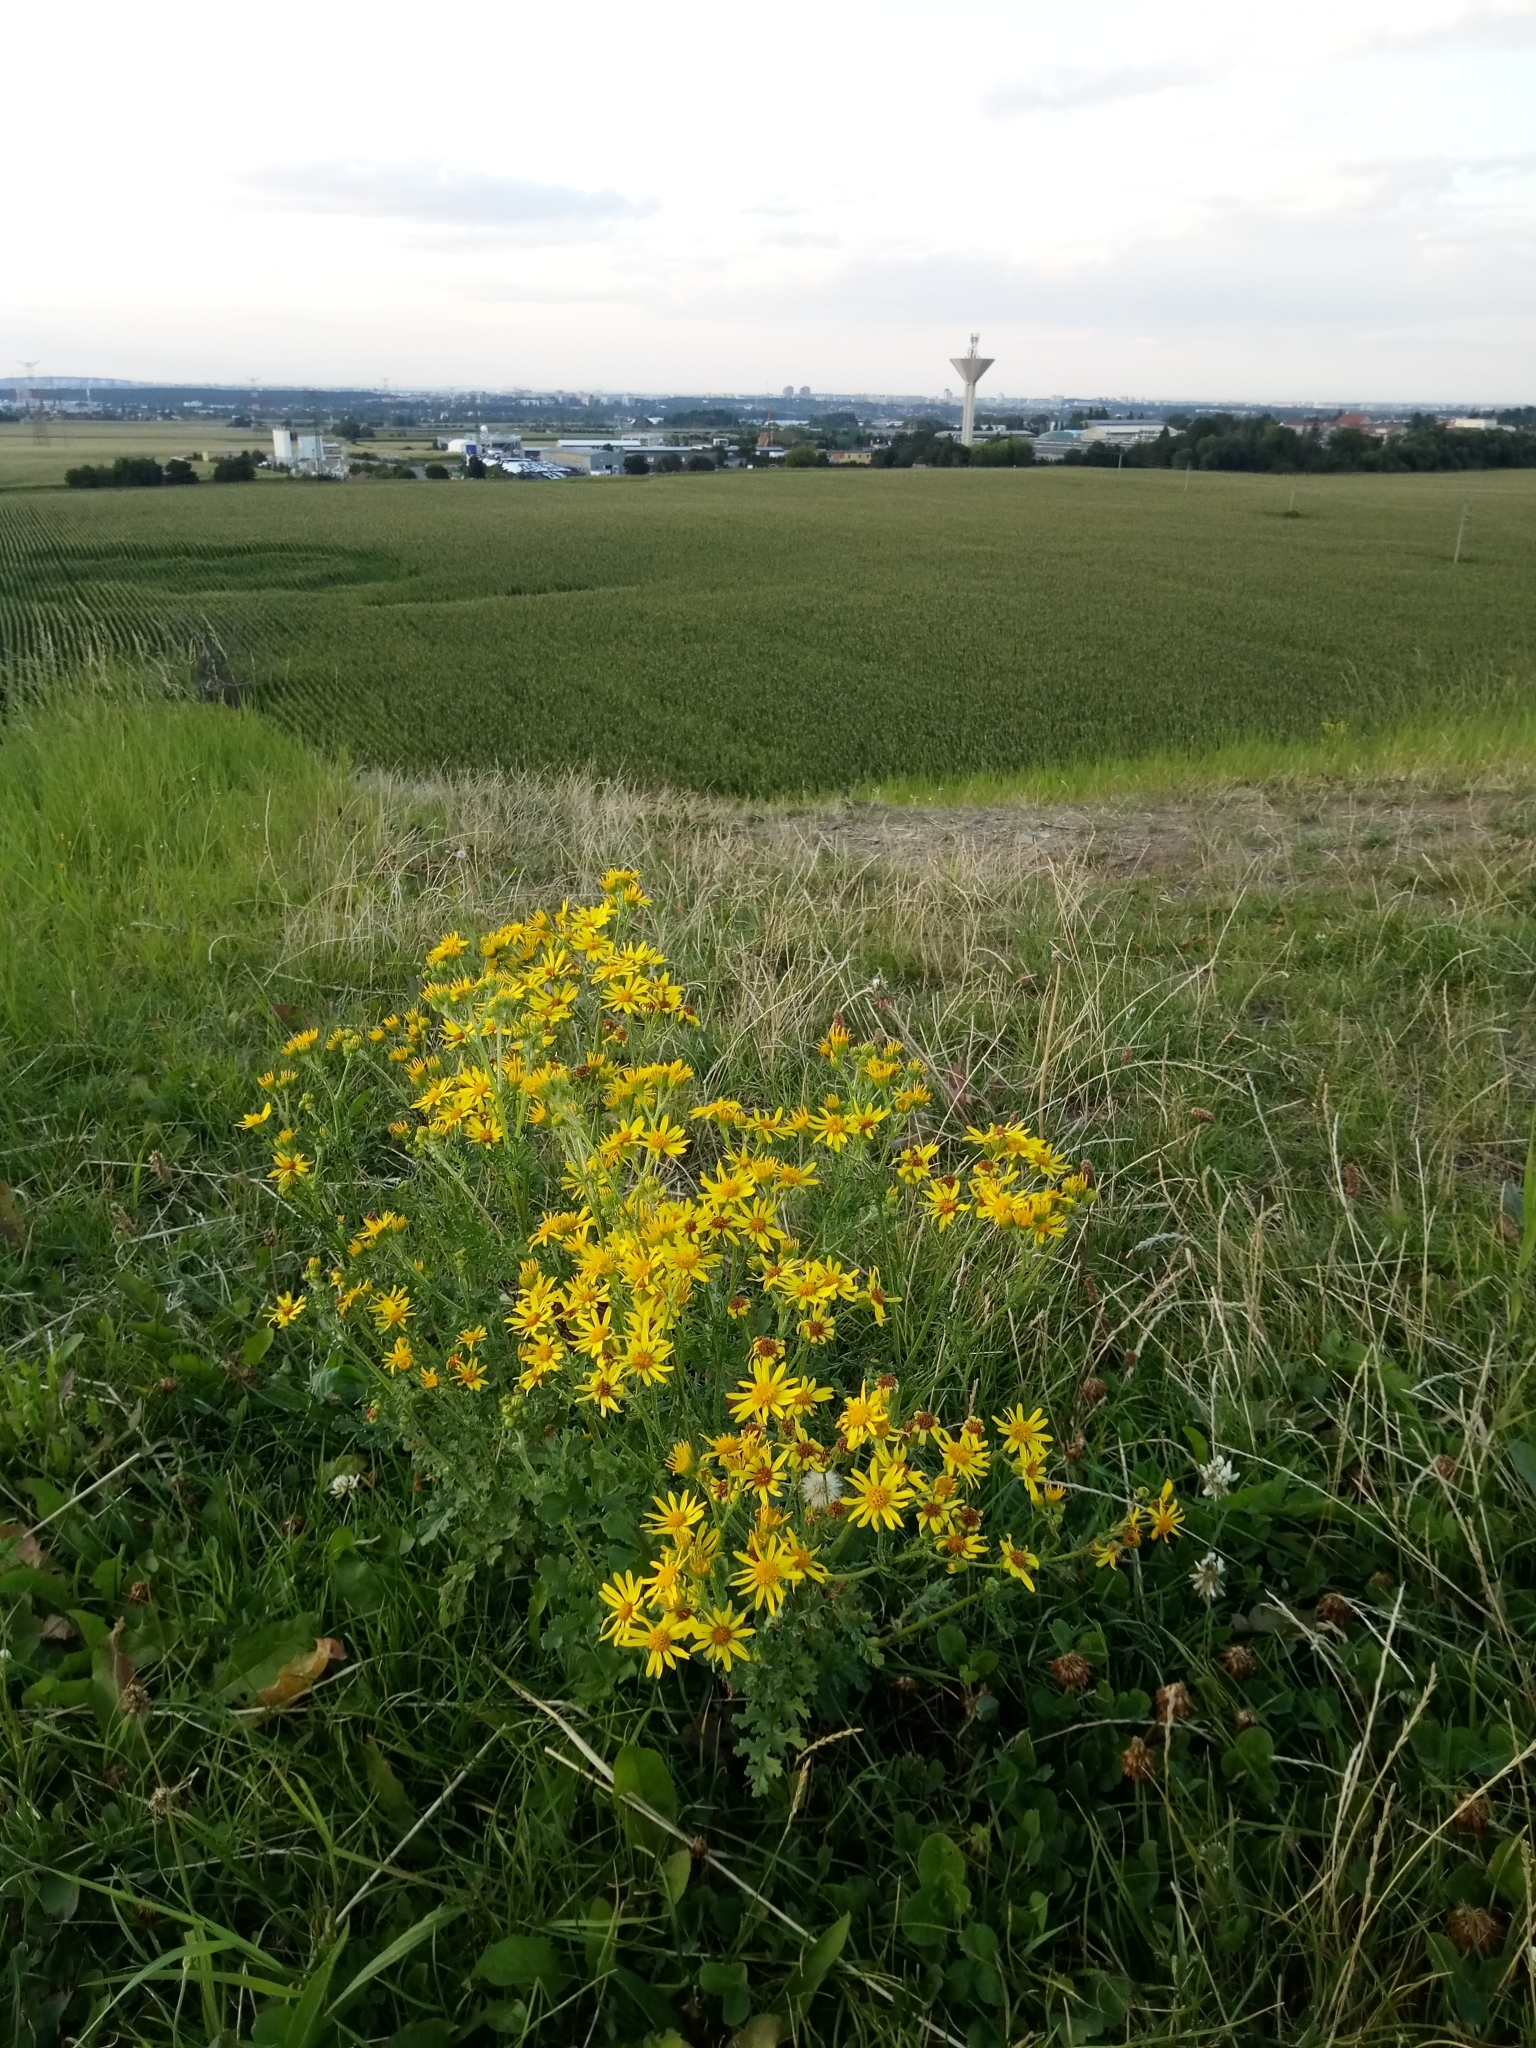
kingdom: Plantae
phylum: Tracheophyta
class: Magnoliopsida
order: Asterales
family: Asteraceae
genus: Jacobaea
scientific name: Jacobaea vulgaris
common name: Stinking willie
